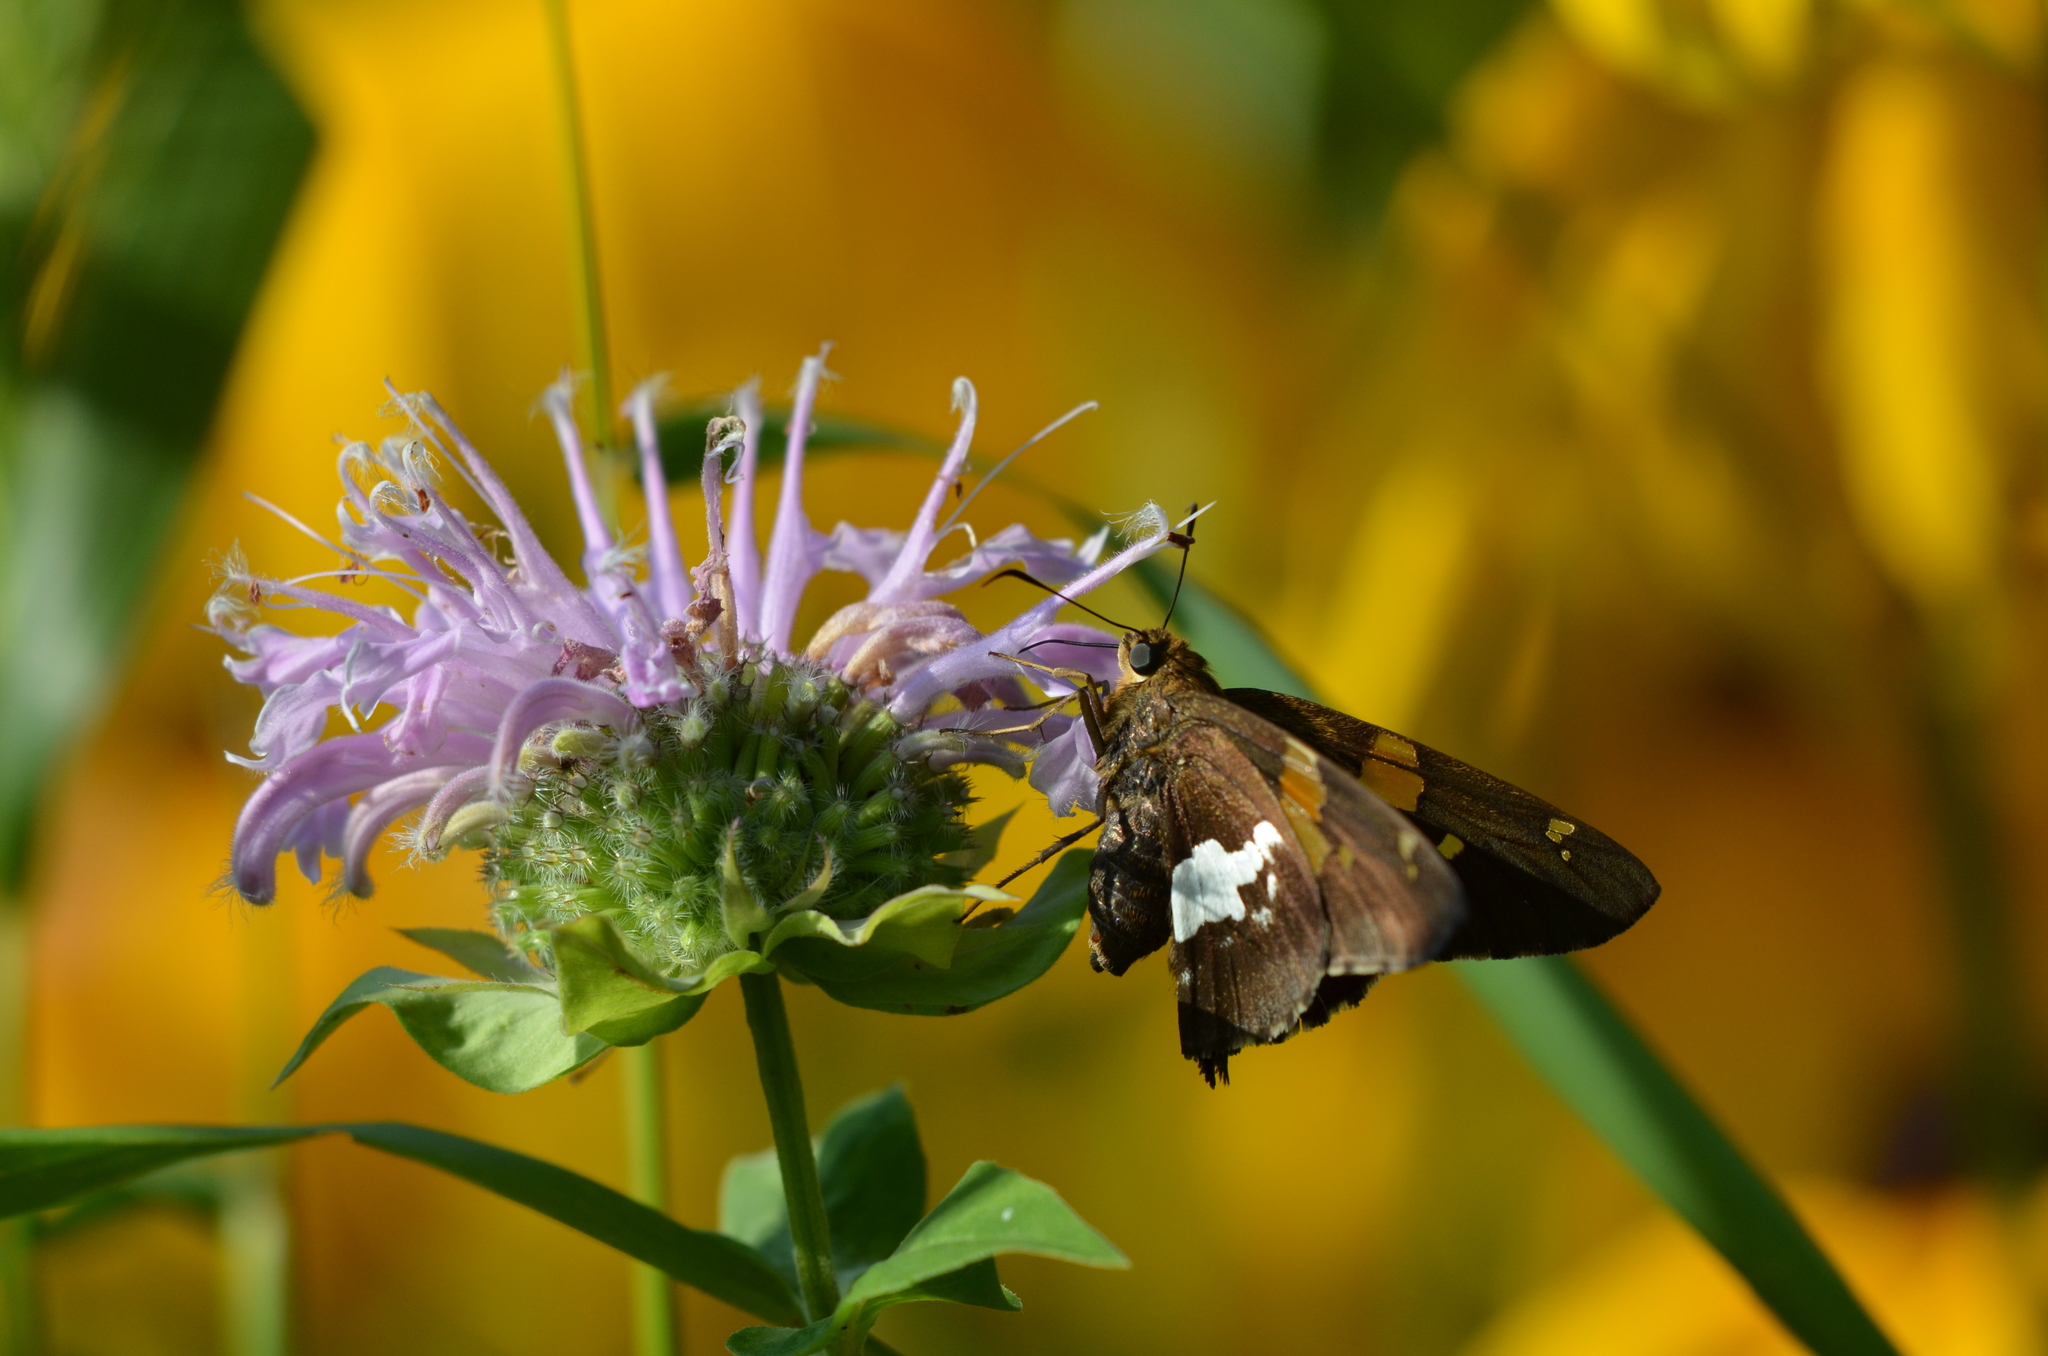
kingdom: Animalia
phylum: Arthropoda
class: Insecta
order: Lepidoptera
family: Hesperiidae
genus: Epargyreus
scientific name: Epargyreus clarus
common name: Silver-spotted skipper
